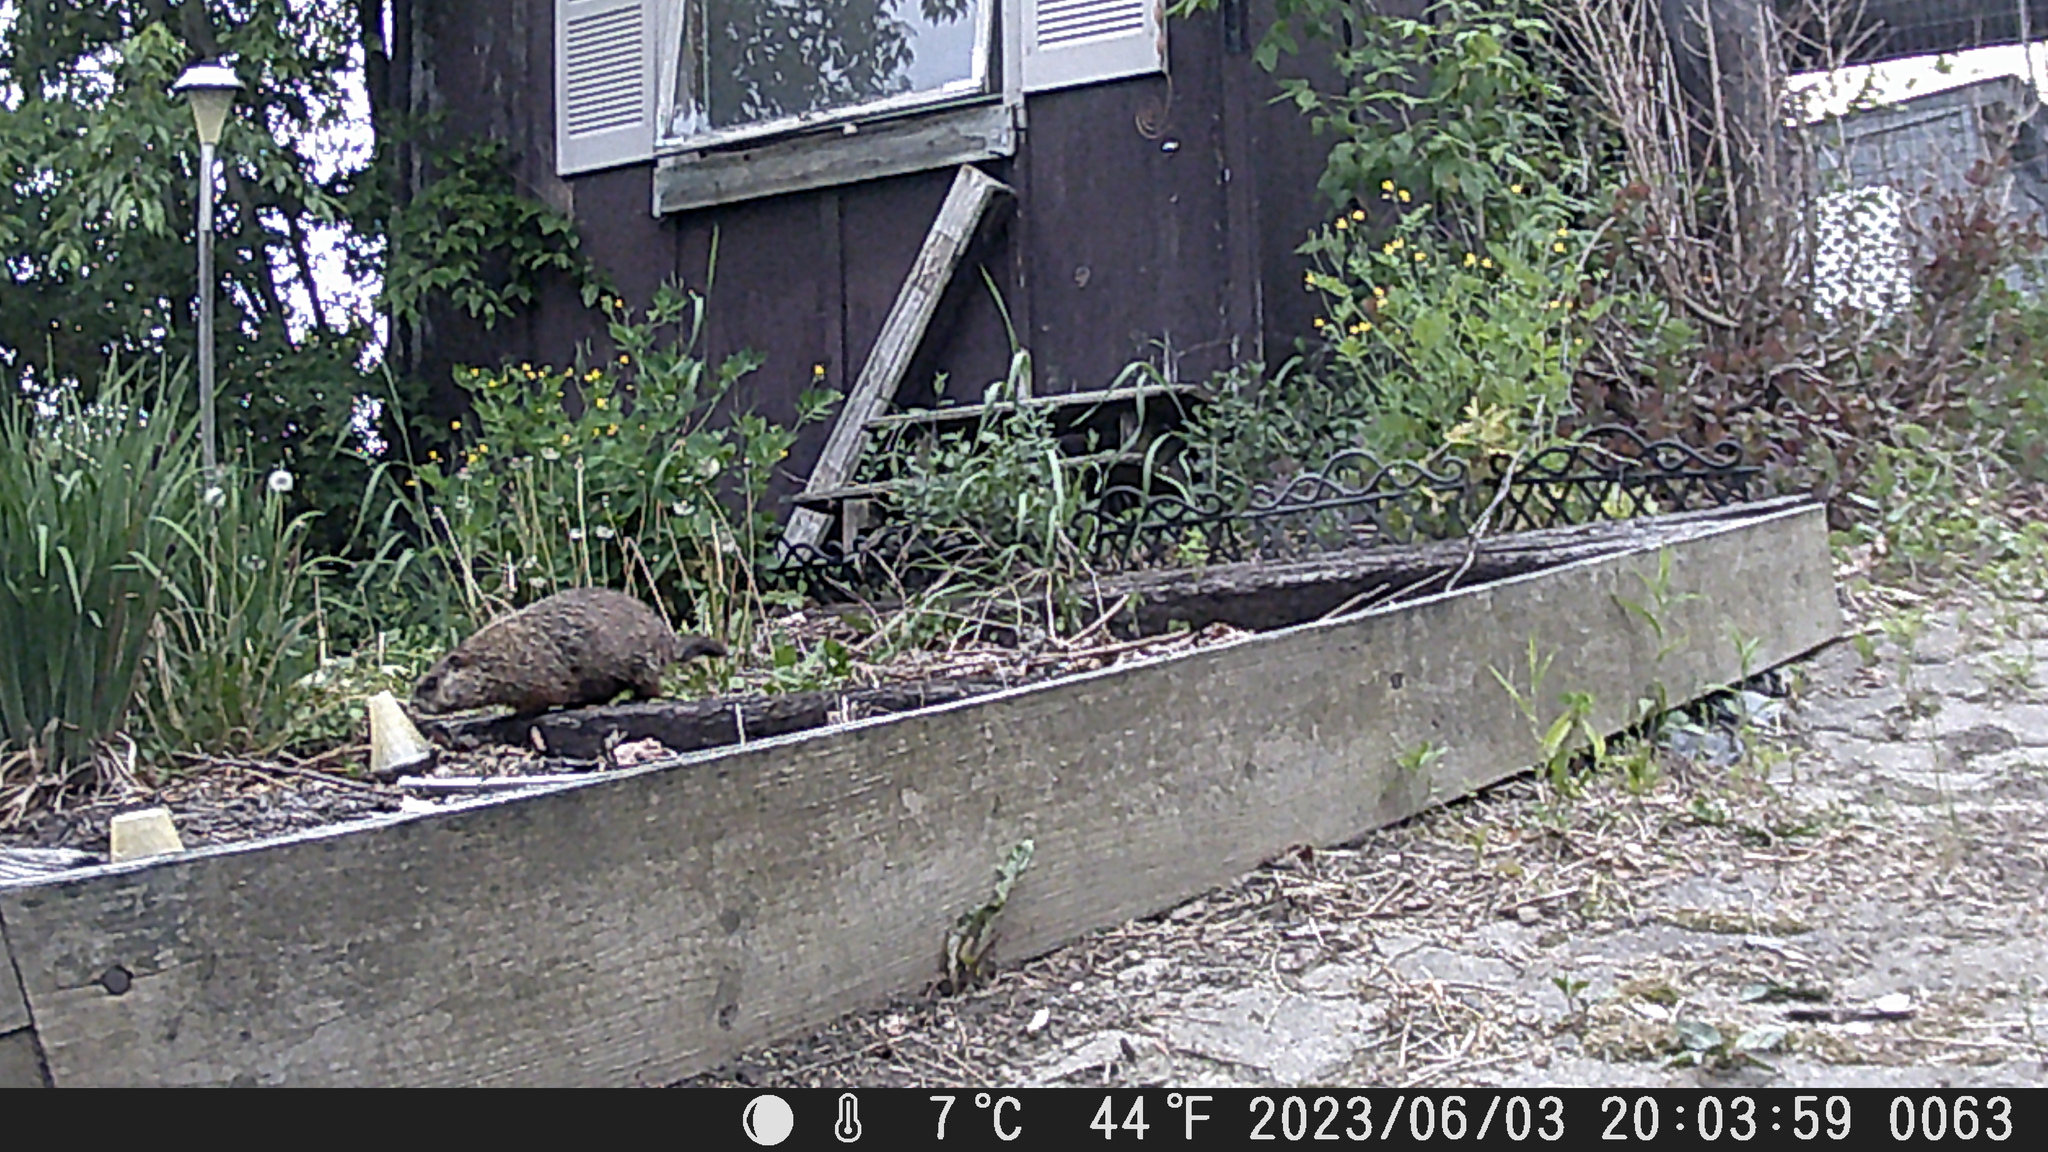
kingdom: Animalia
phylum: Chordata
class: Mammalia
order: Rodentia
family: Sciuridae
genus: Marmota
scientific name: Marmota monax
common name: Groundhog
